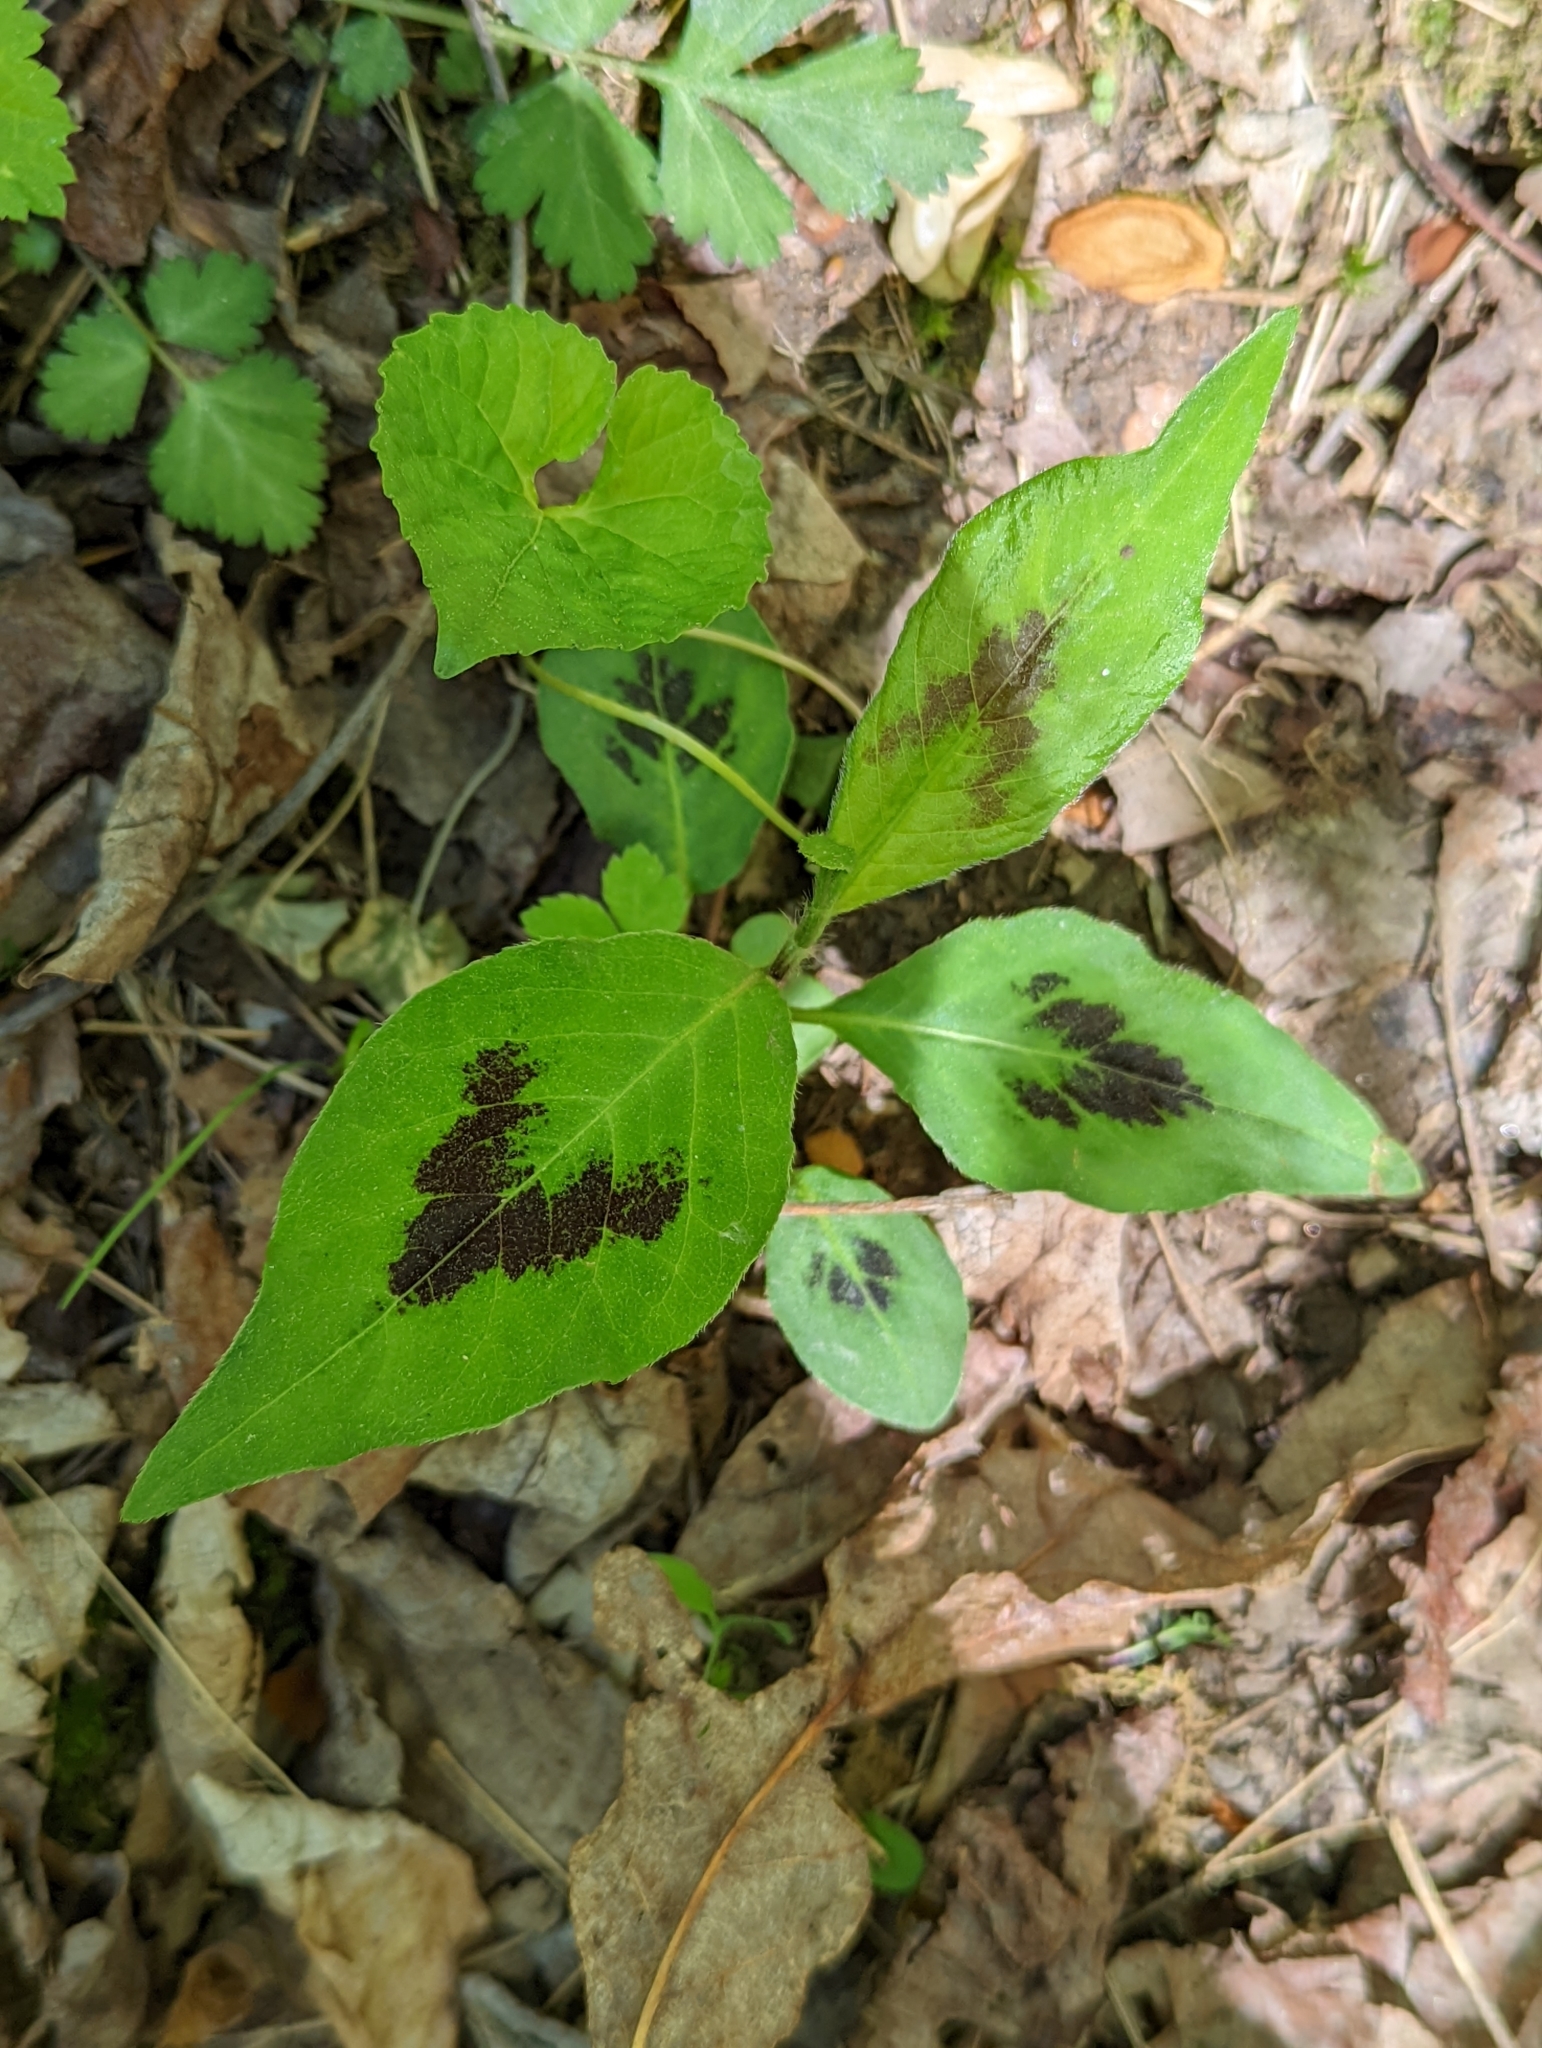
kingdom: Plantae
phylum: Tracheophyta
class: Magnoliopsida
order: Caryophyllales
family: Polygonaceae
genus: Persicaria
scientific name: Persicaria virginiana
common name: Jumpseed
